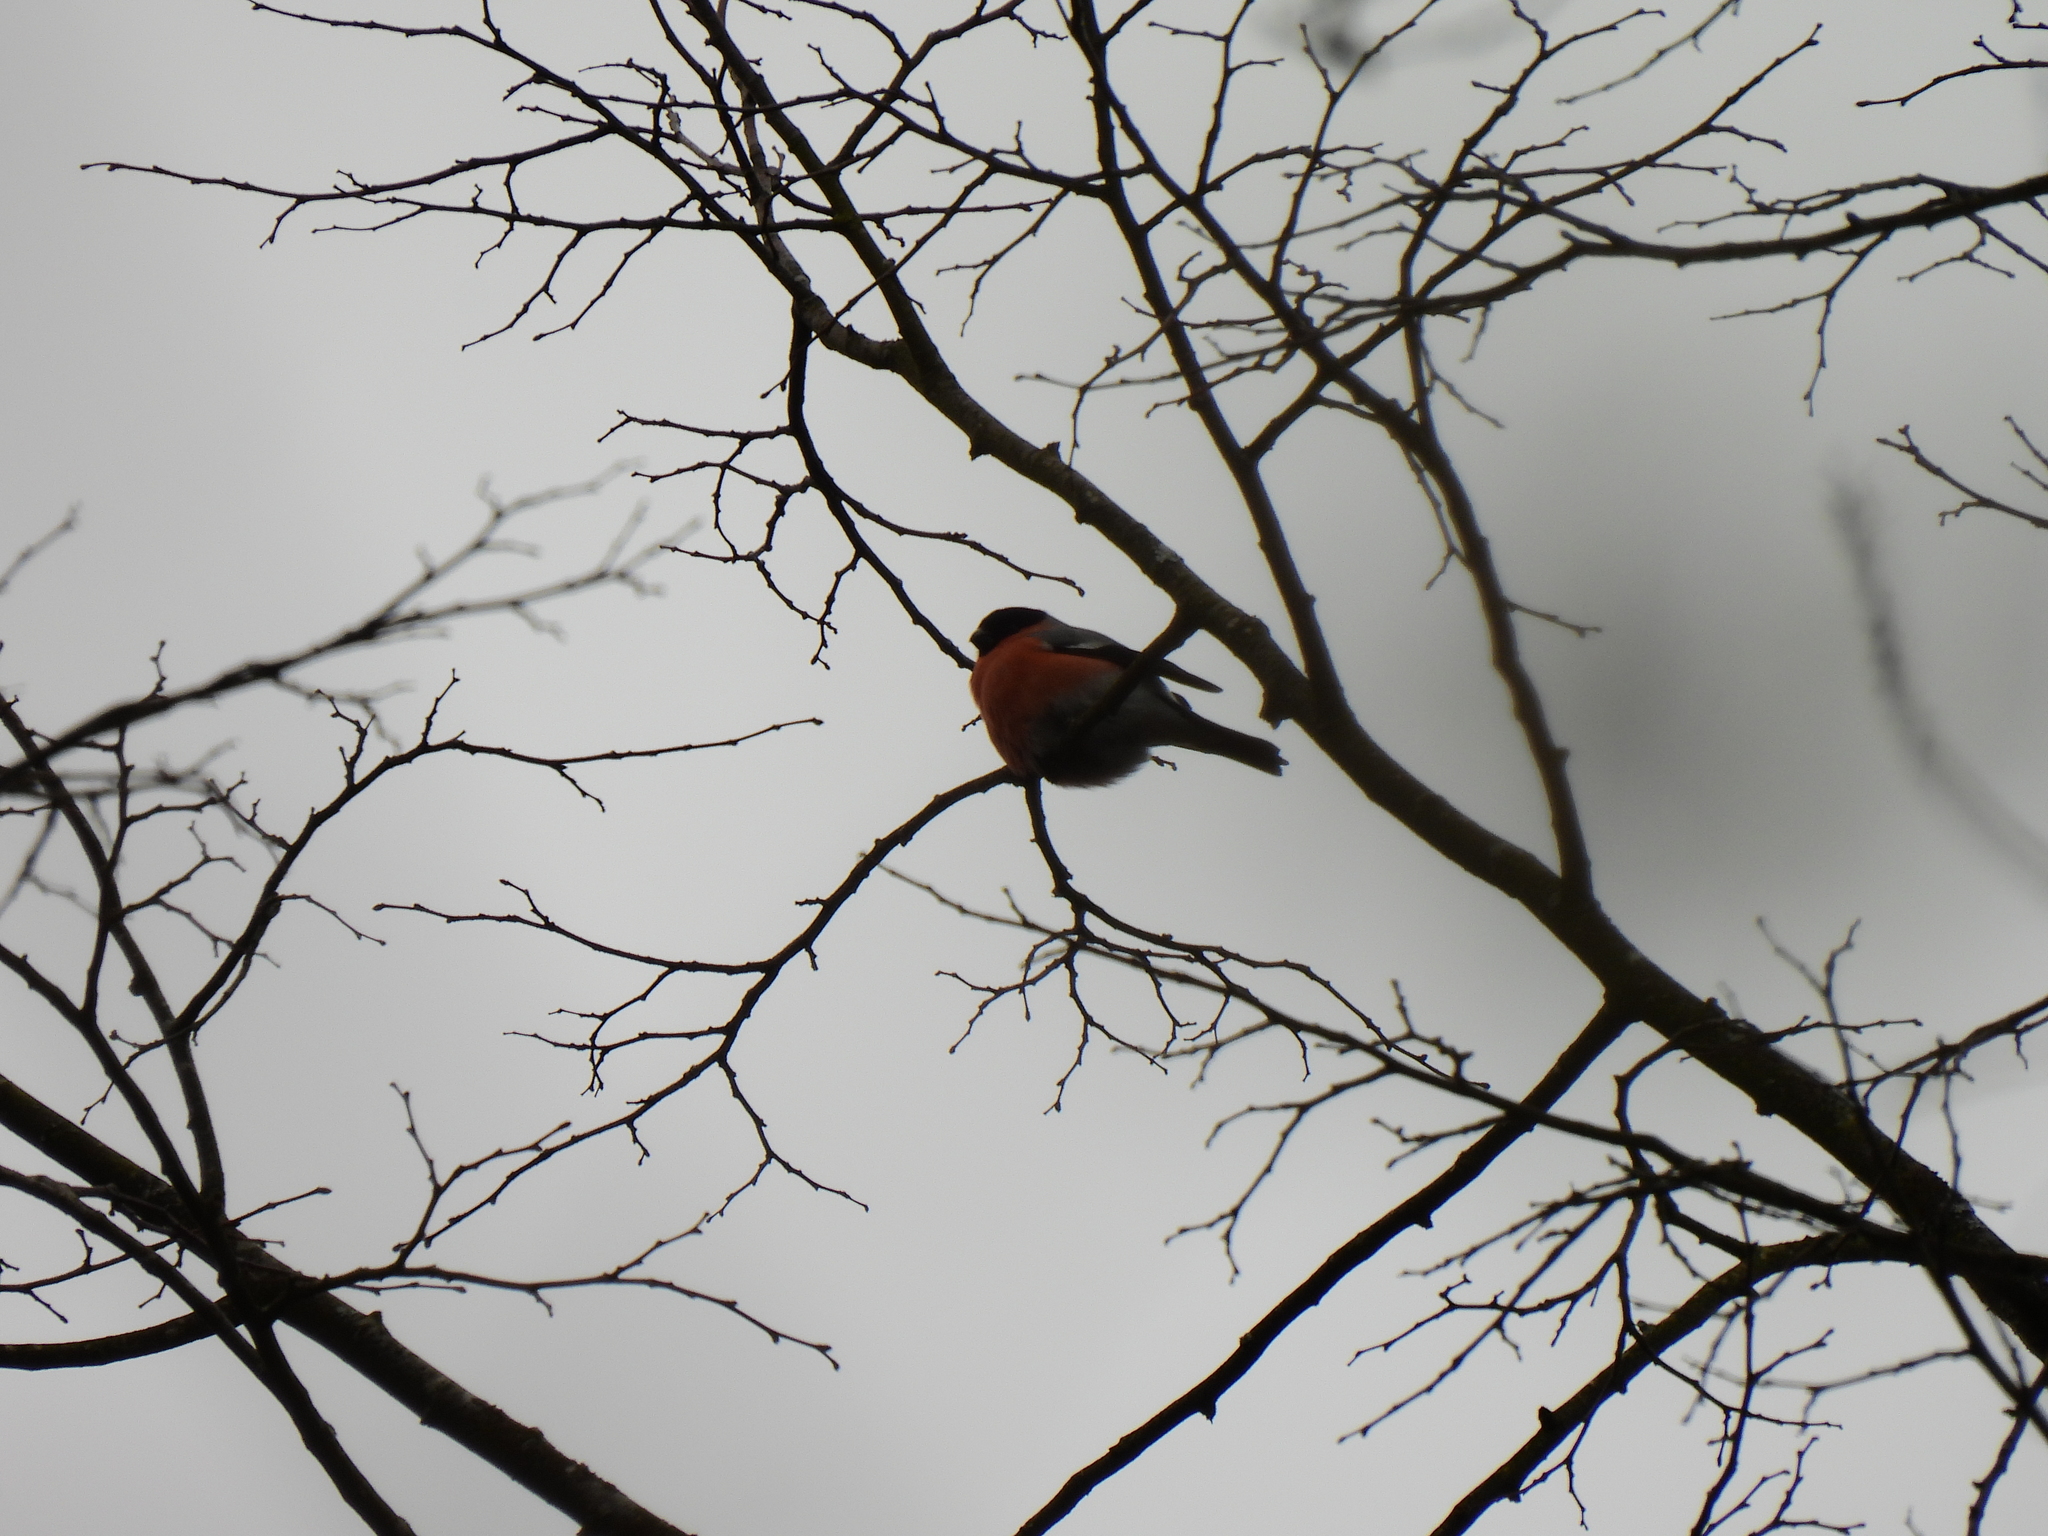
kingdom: Animalia
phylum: Chordata
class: Aves
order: Passeriformes
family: Fringillidae
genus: Pyrrhula
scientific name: Pyrrhula pyrrhula
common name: Eurasian bullfinch
